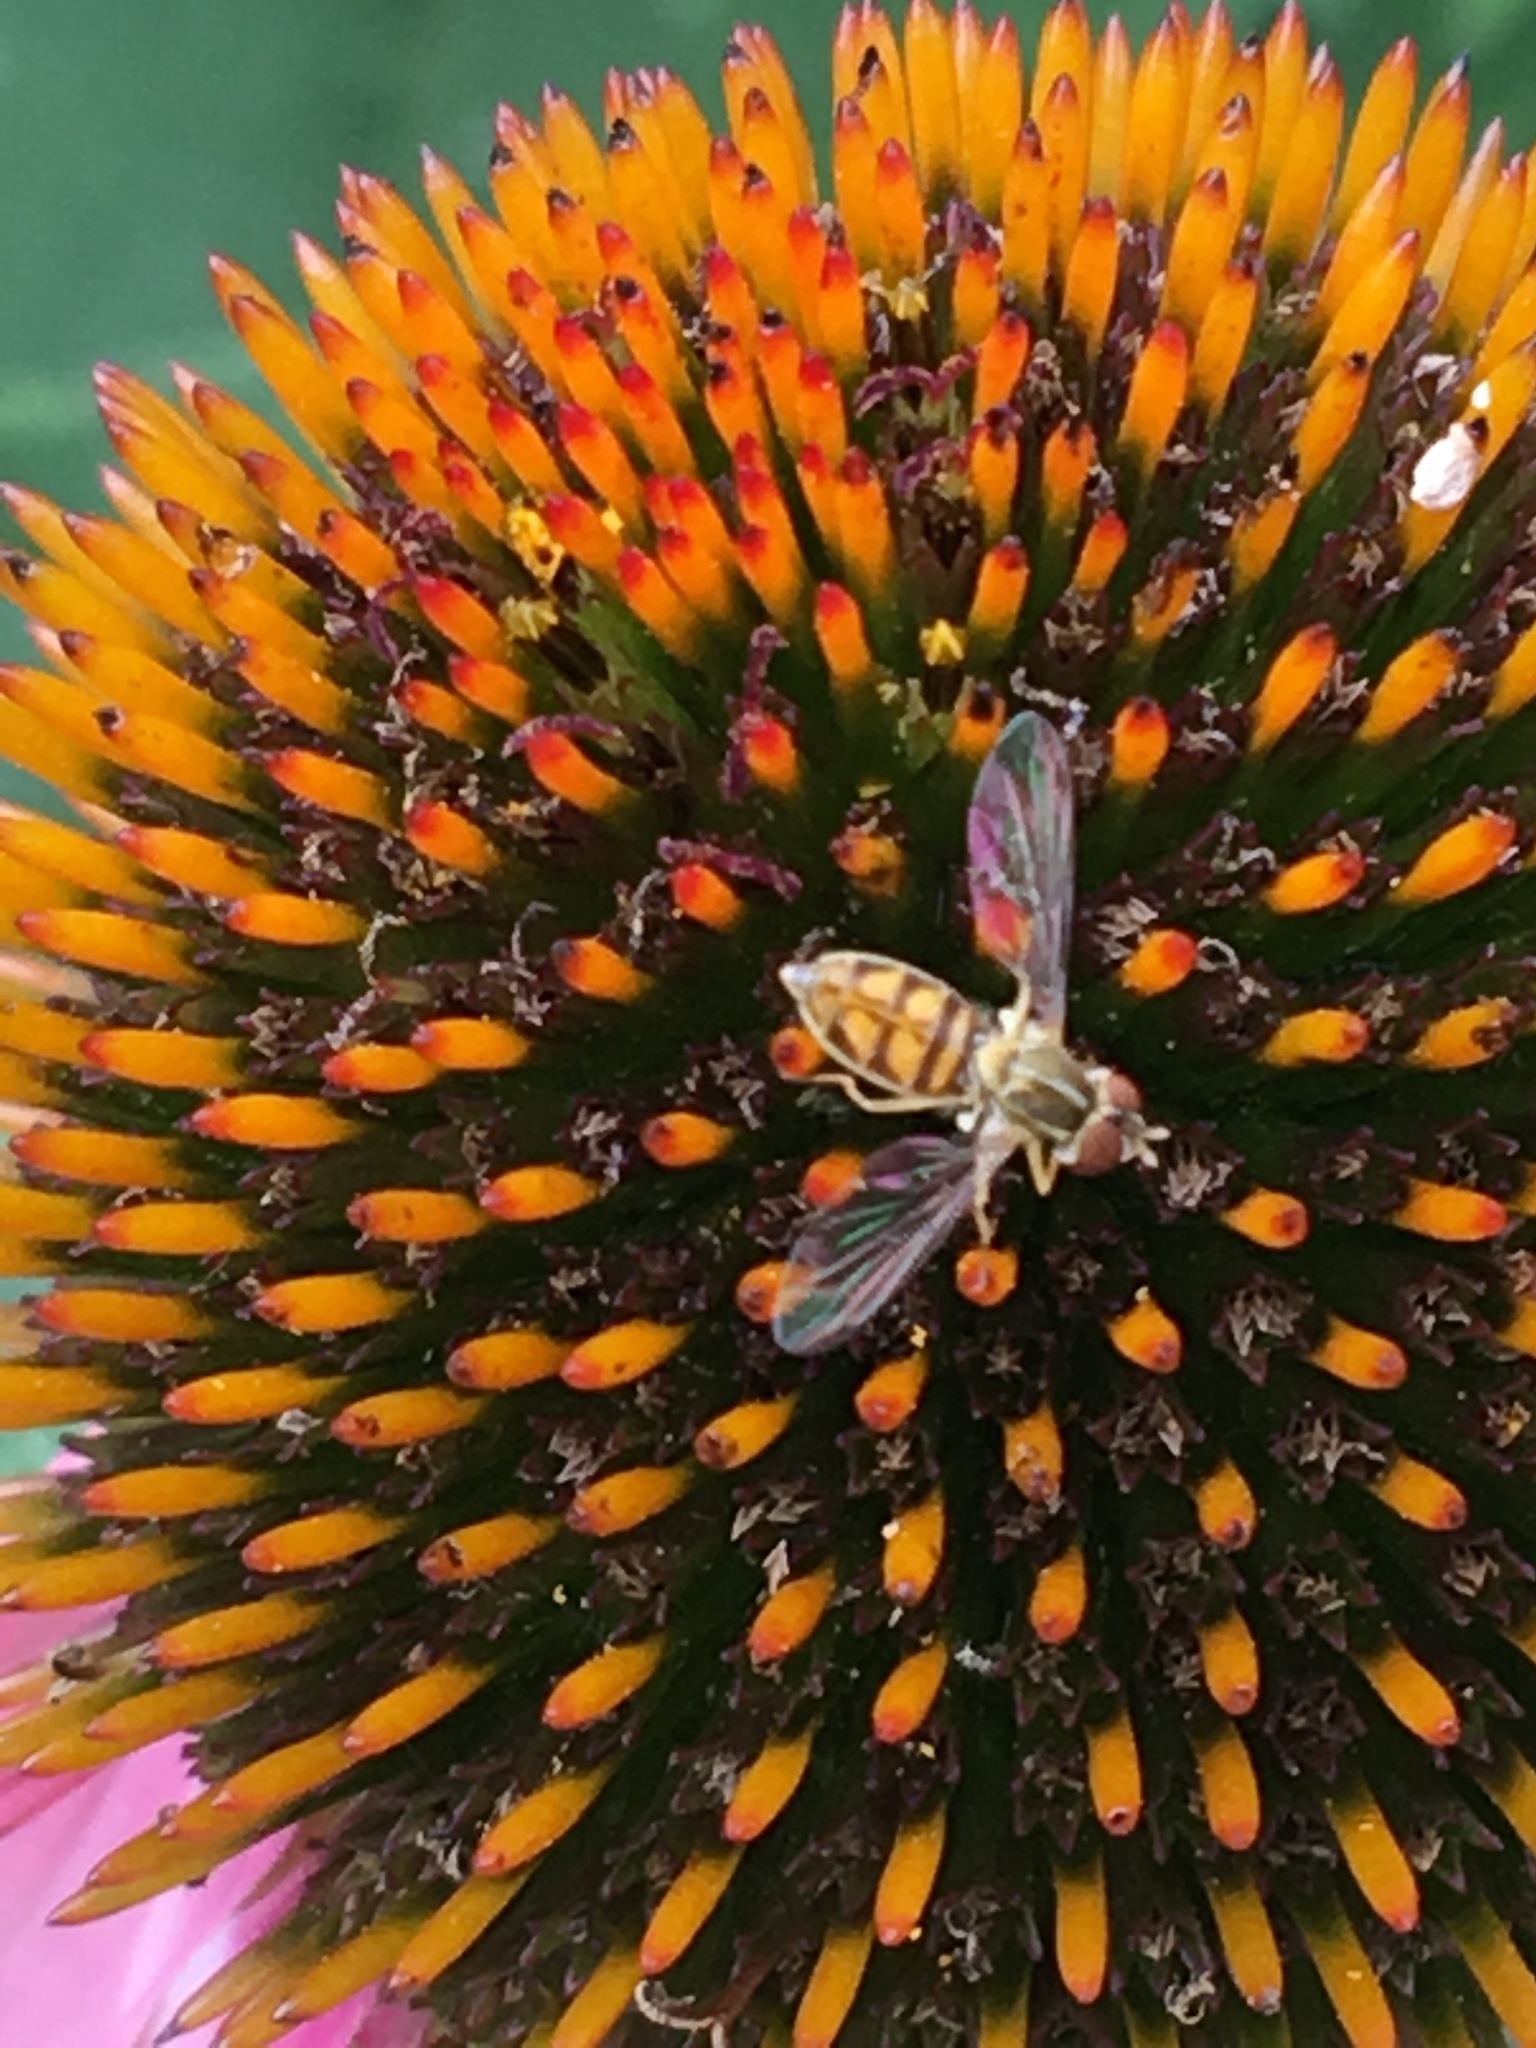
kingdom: Animalia
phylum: Arthropoda
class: Insecta
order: Diptera
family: Syrphidae
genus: Toxomerus
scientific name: Toxomerus marginatus
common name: Syrphid fly
